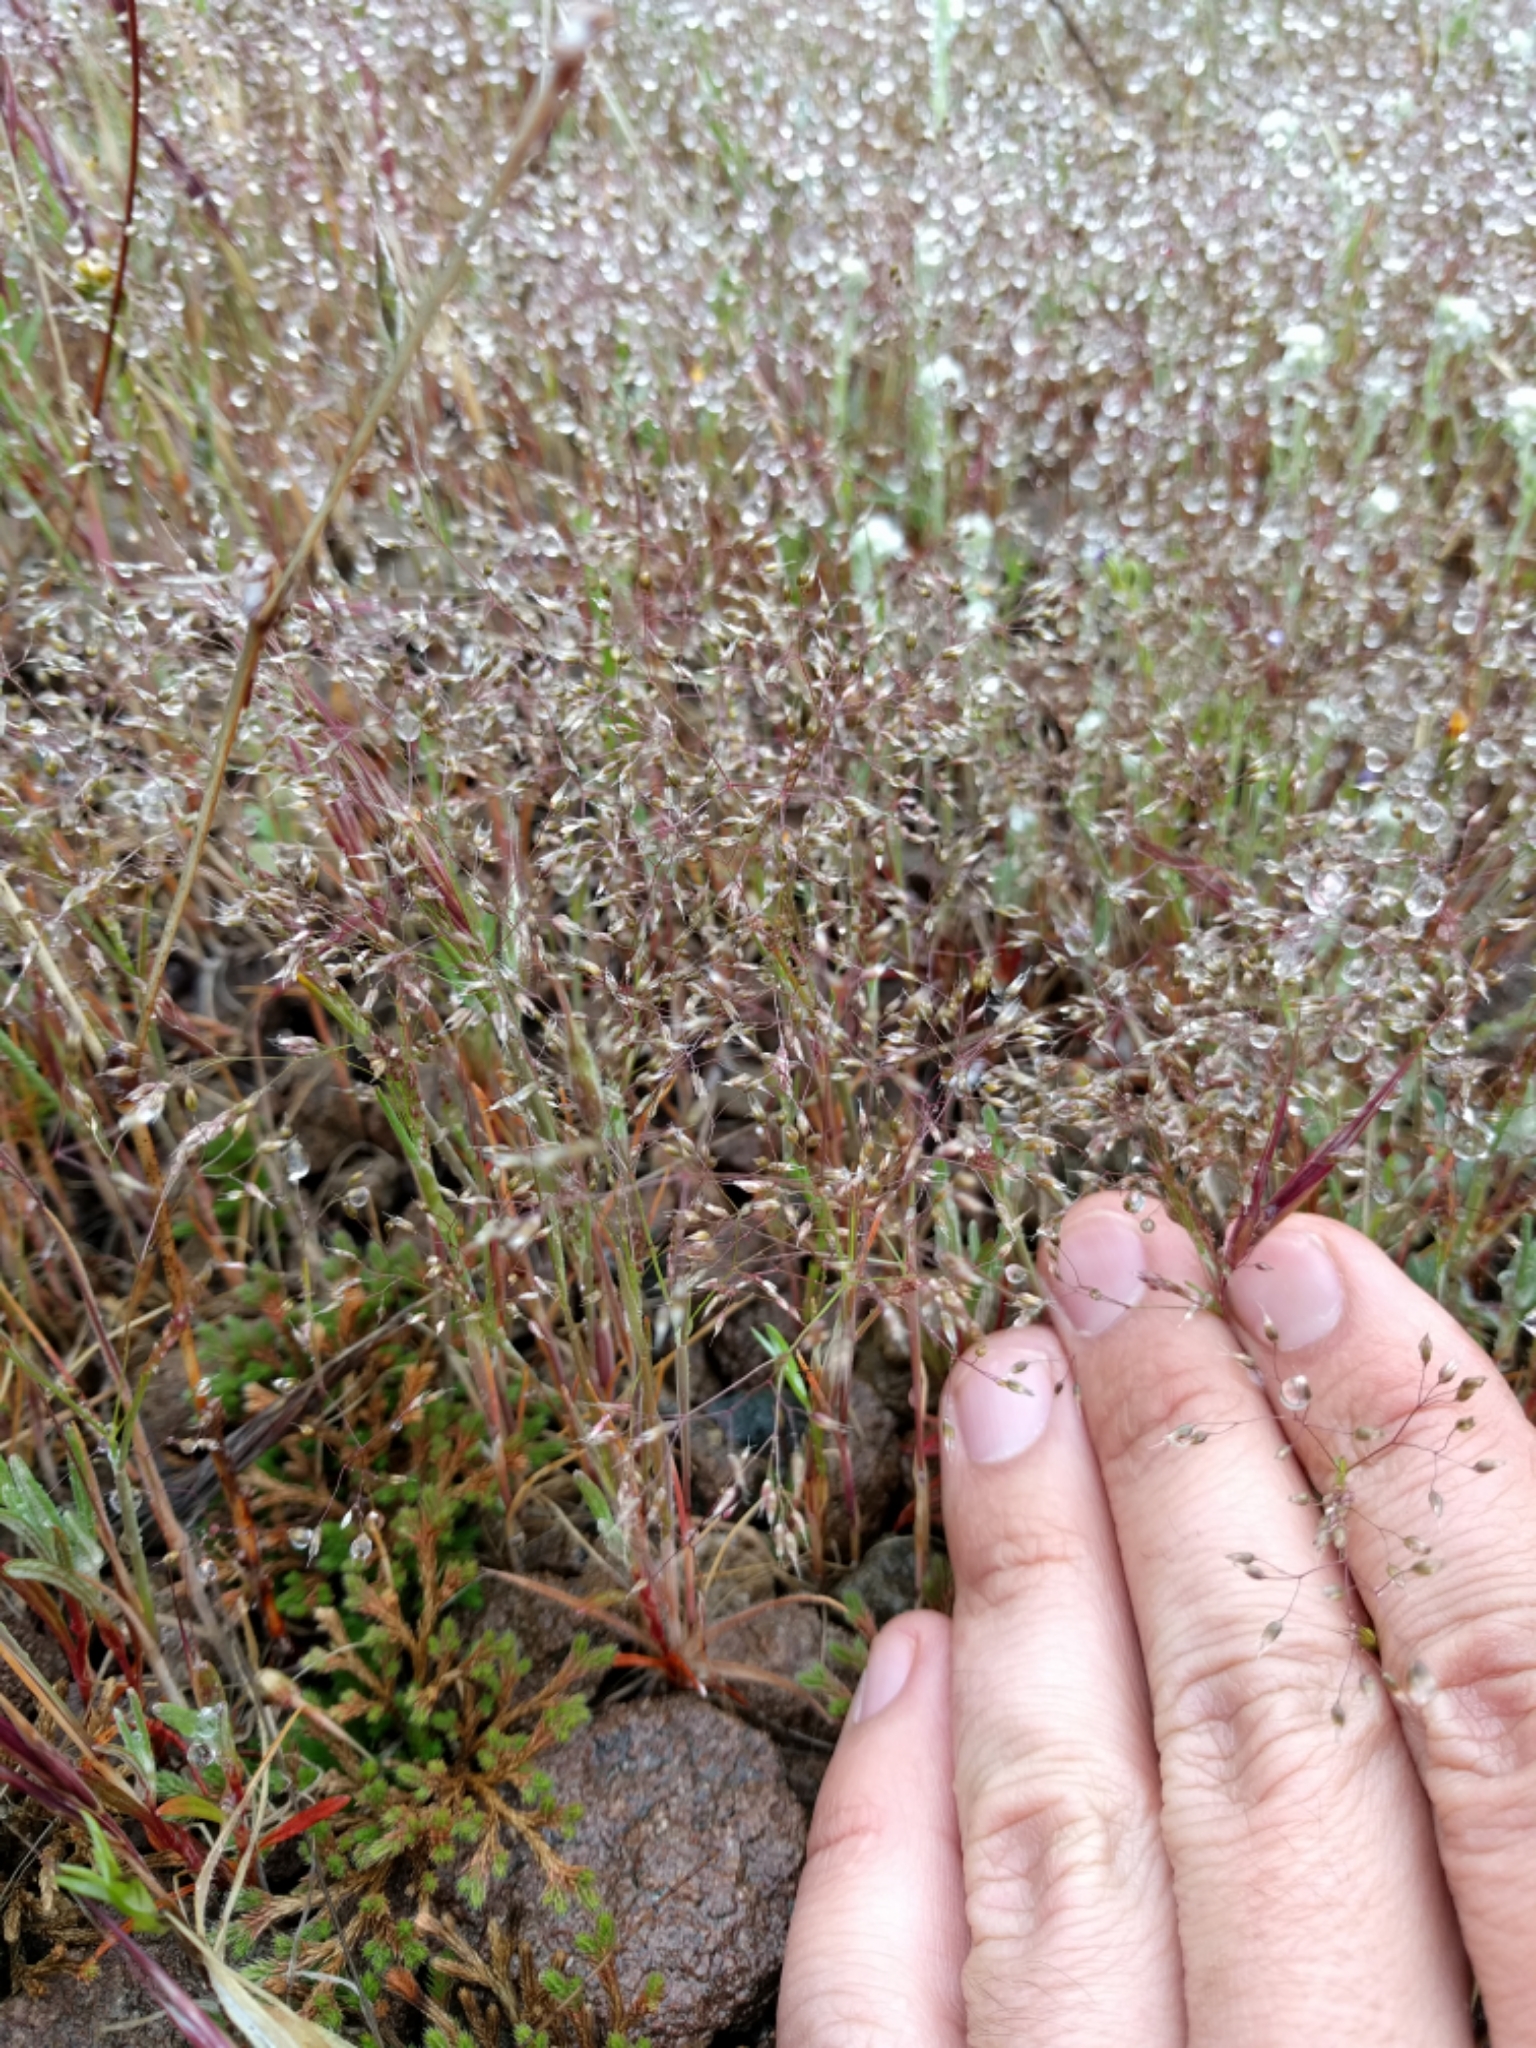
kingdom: Plantae
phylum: Tracheophyta
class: Liliopsida
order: Poales
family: Poaceae
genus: Aira
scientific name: Aira caryophyllea
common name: Silver hairgrass
